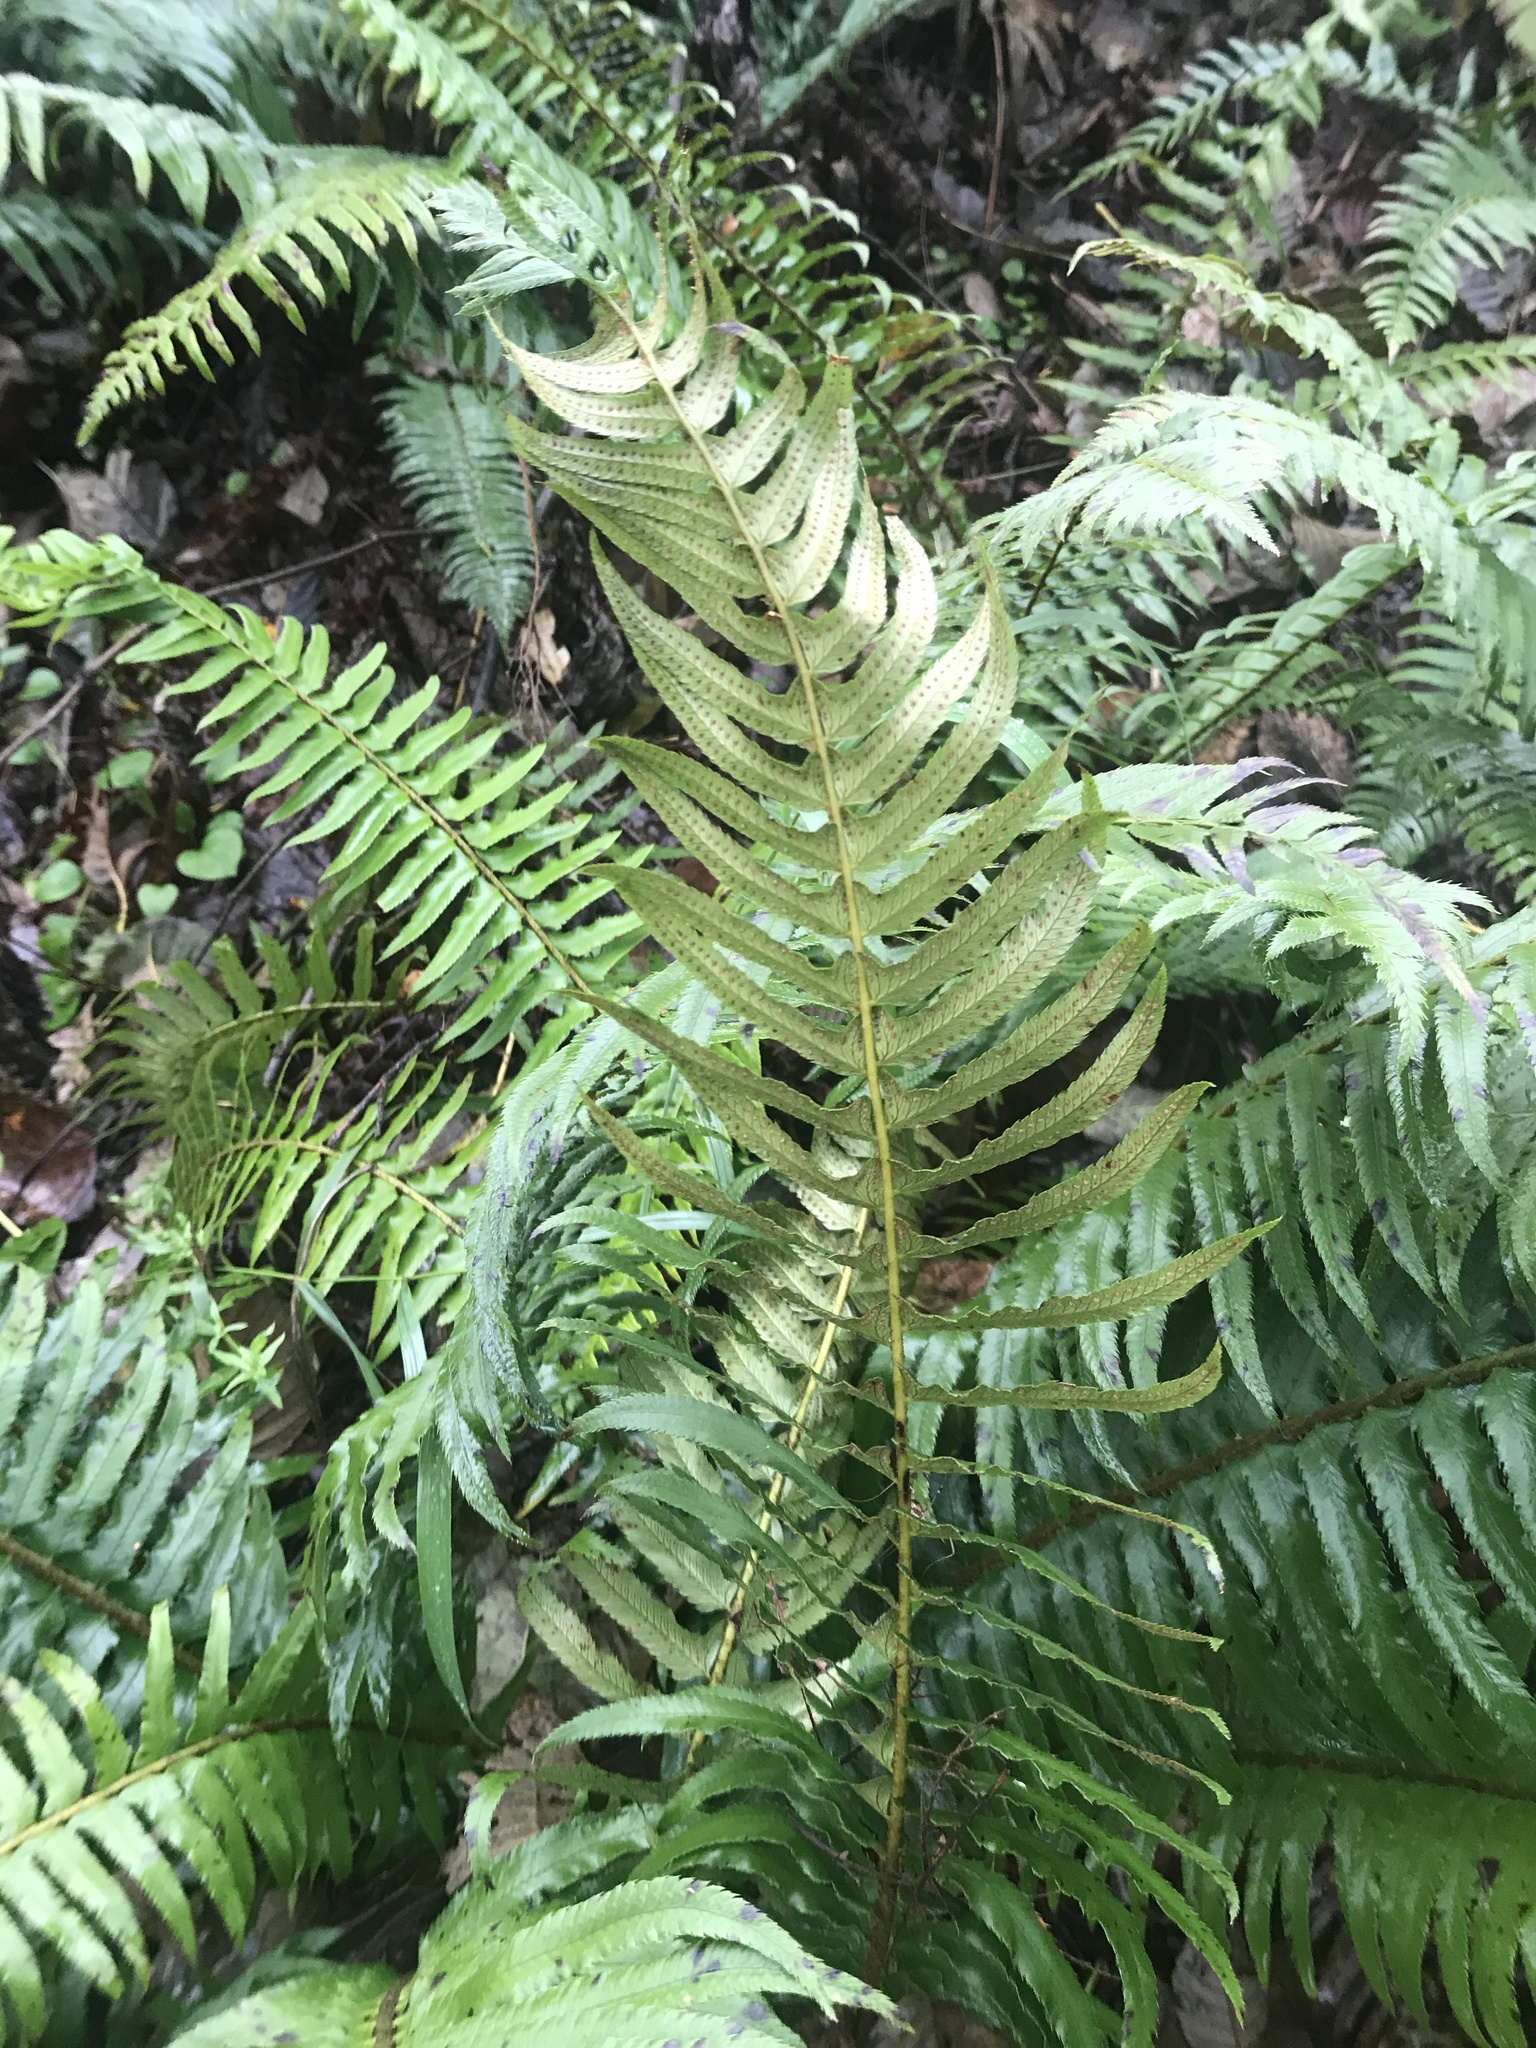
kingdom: Plantae
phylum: Tracheophyta
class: Polypodiopsida
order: Polypodiales
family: Dryopteridaceae
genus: Polystichum
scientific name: Polystichum munitum
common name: Western sword-fern
